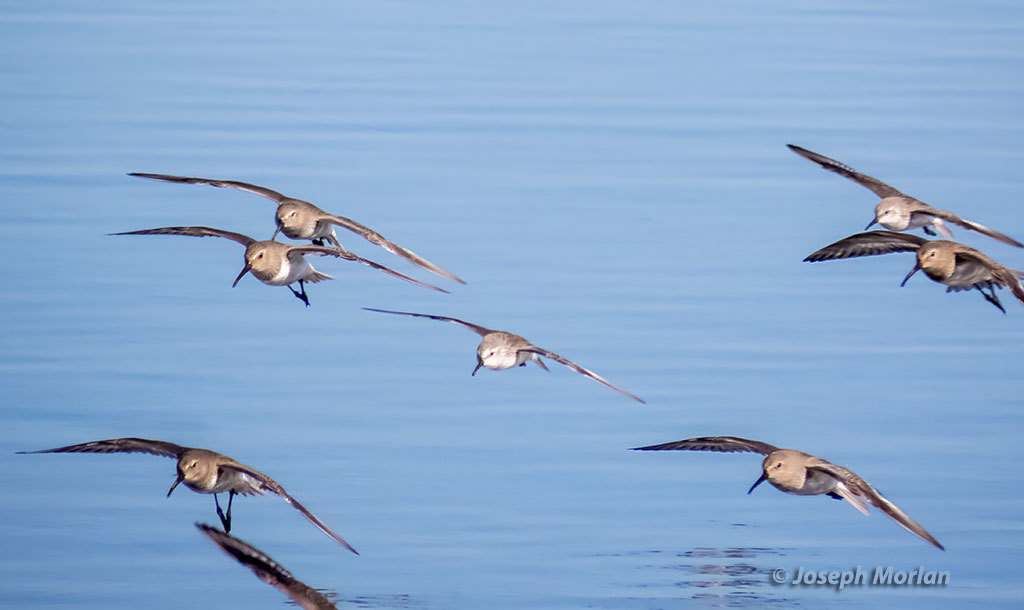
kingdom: Animalia
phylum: Chordata
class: Aves
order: Charadriiformes
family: Scolopacidae
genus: Calidris
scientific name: Calidris alpina
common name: Dunlin
